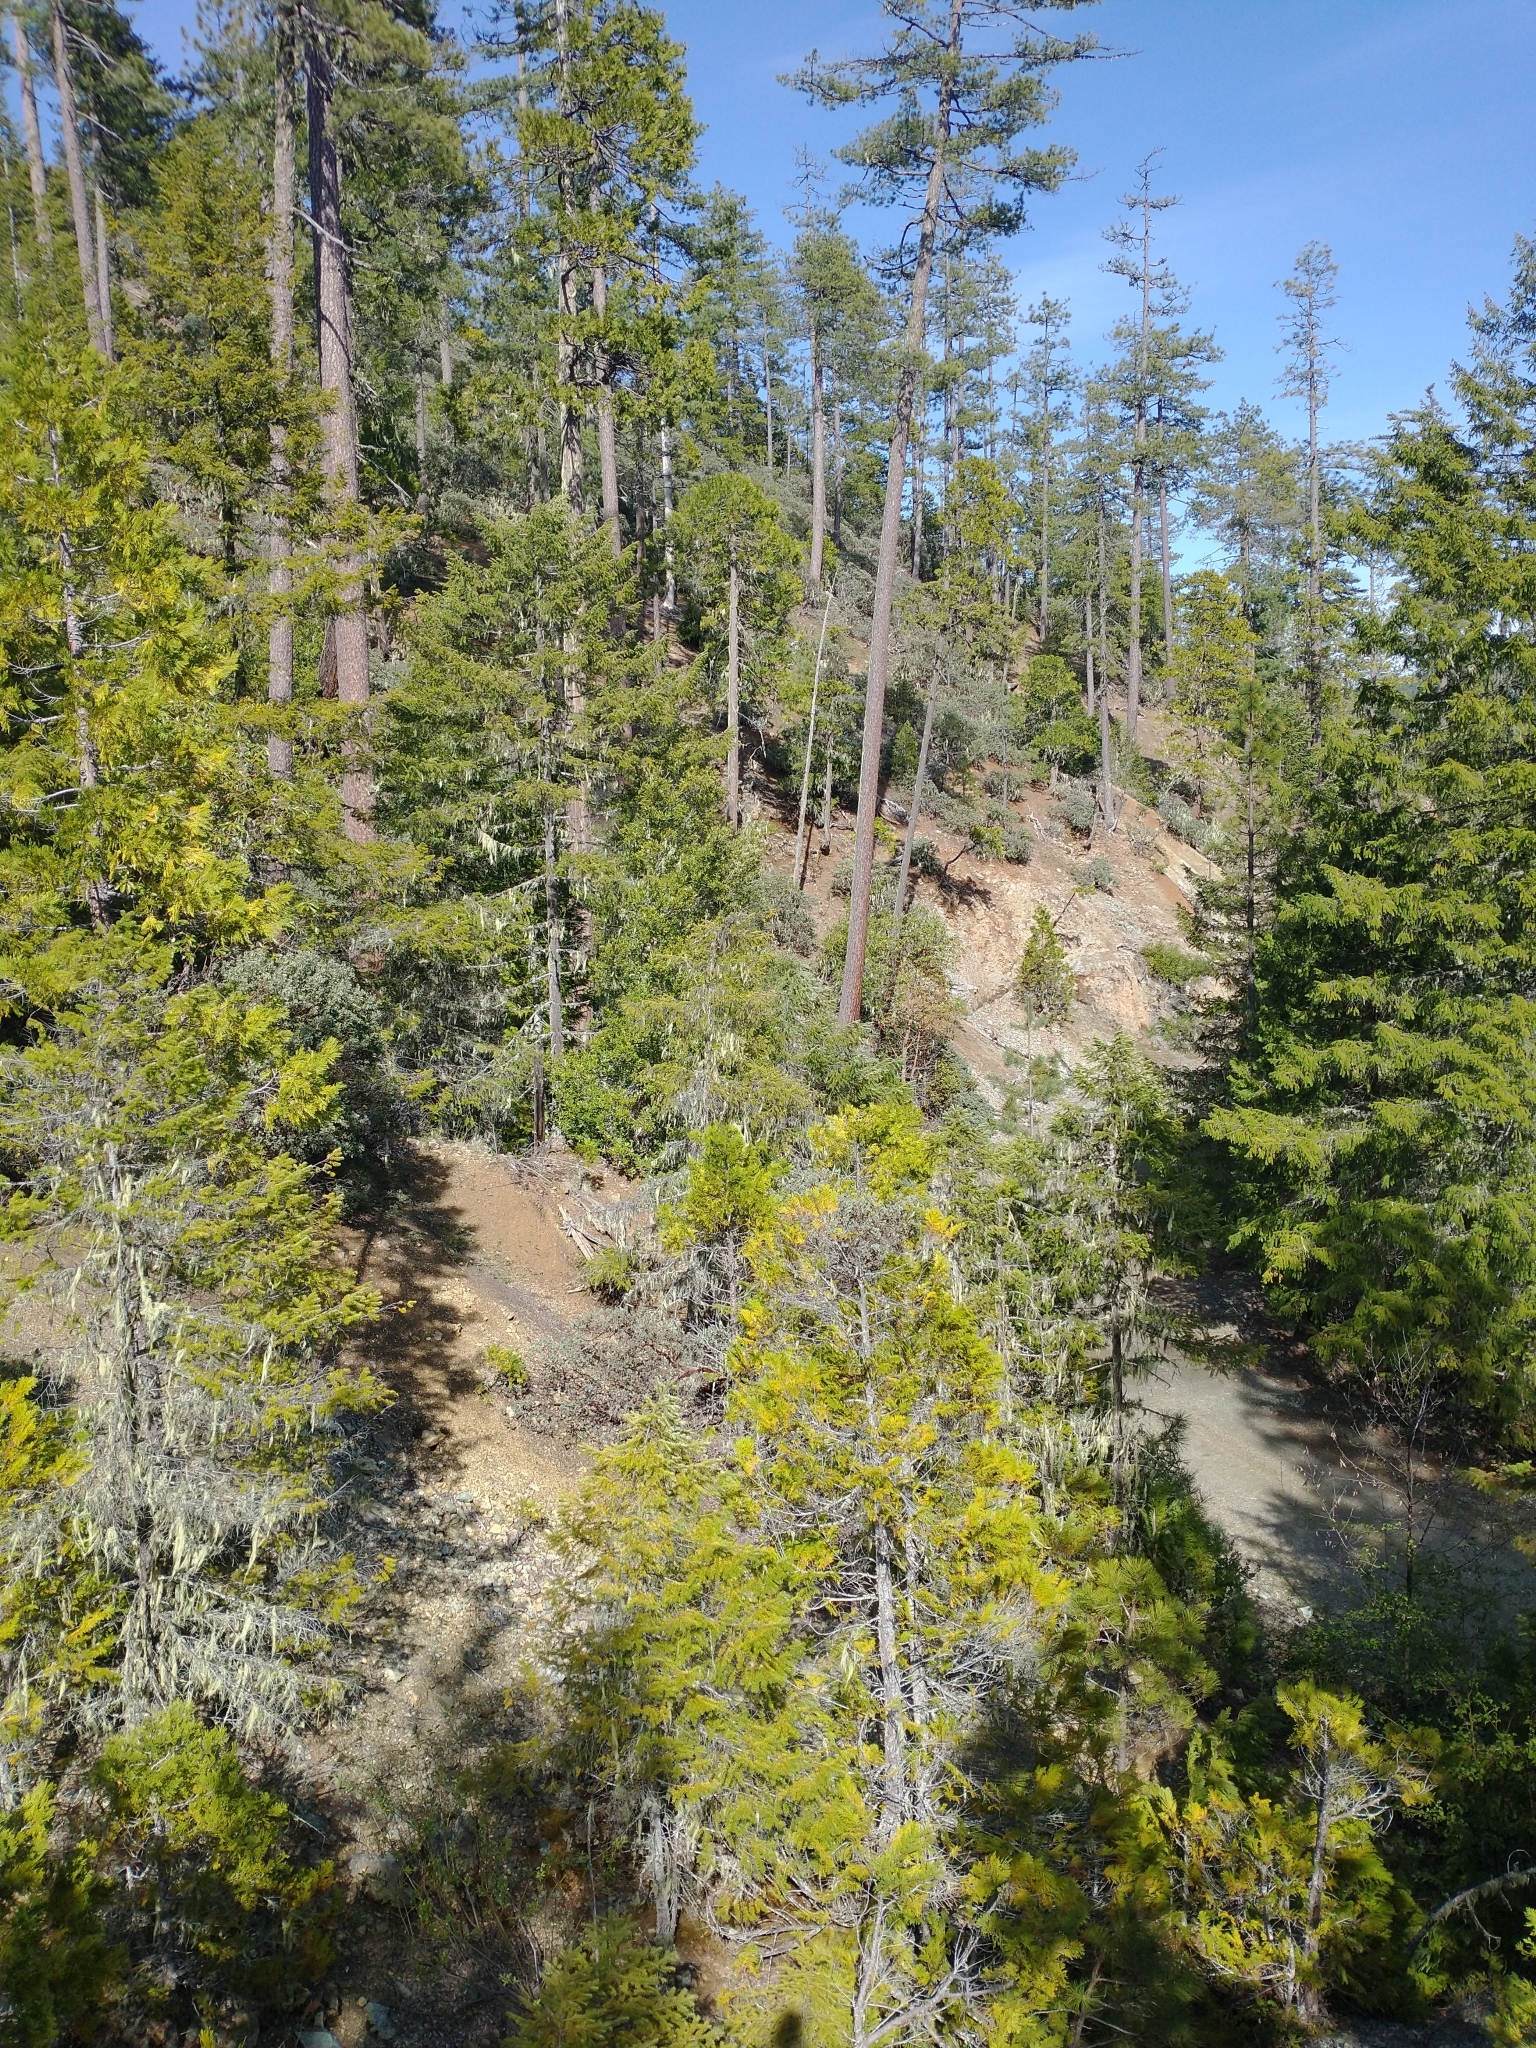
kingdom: Plantae
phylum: Tracheophyta
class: Pinopsida
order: Pinales
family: Cupressaceae
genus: Chamaecyparis
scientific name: Chamaecyparis lawsoniana
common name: Lawson's cypress
